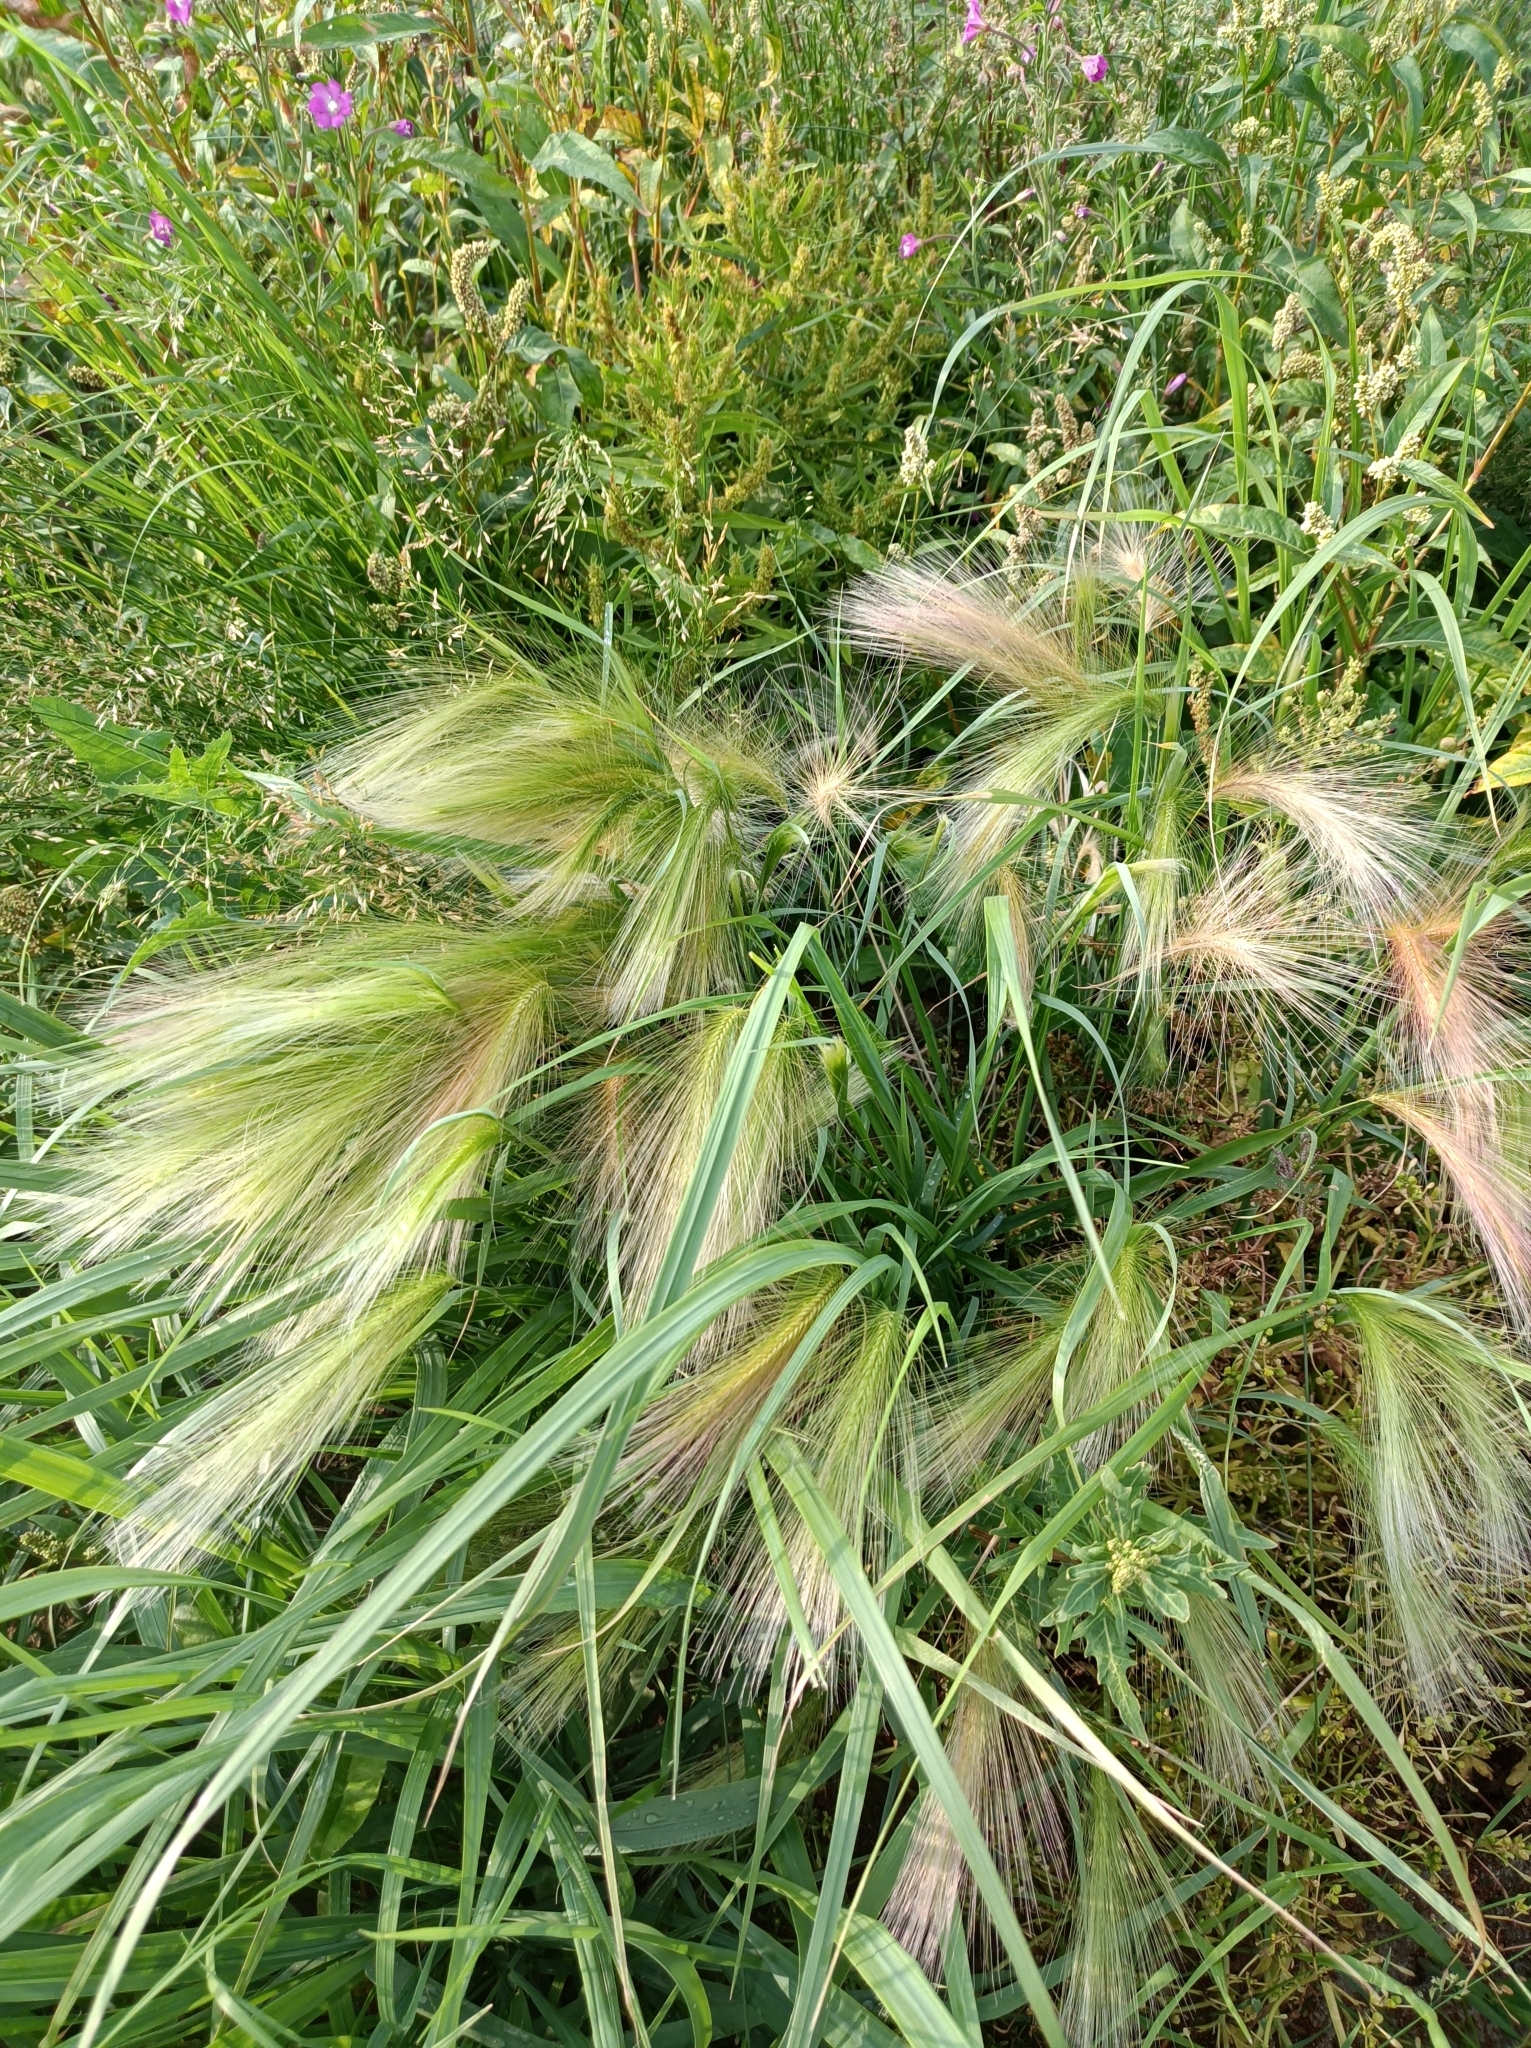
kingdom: Plantae
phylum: Tracheophyta
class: Liliopsida
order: Poales
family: Poaceae
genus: Hordeum
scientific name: Hordeum jubatum
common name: Foxtail barley
